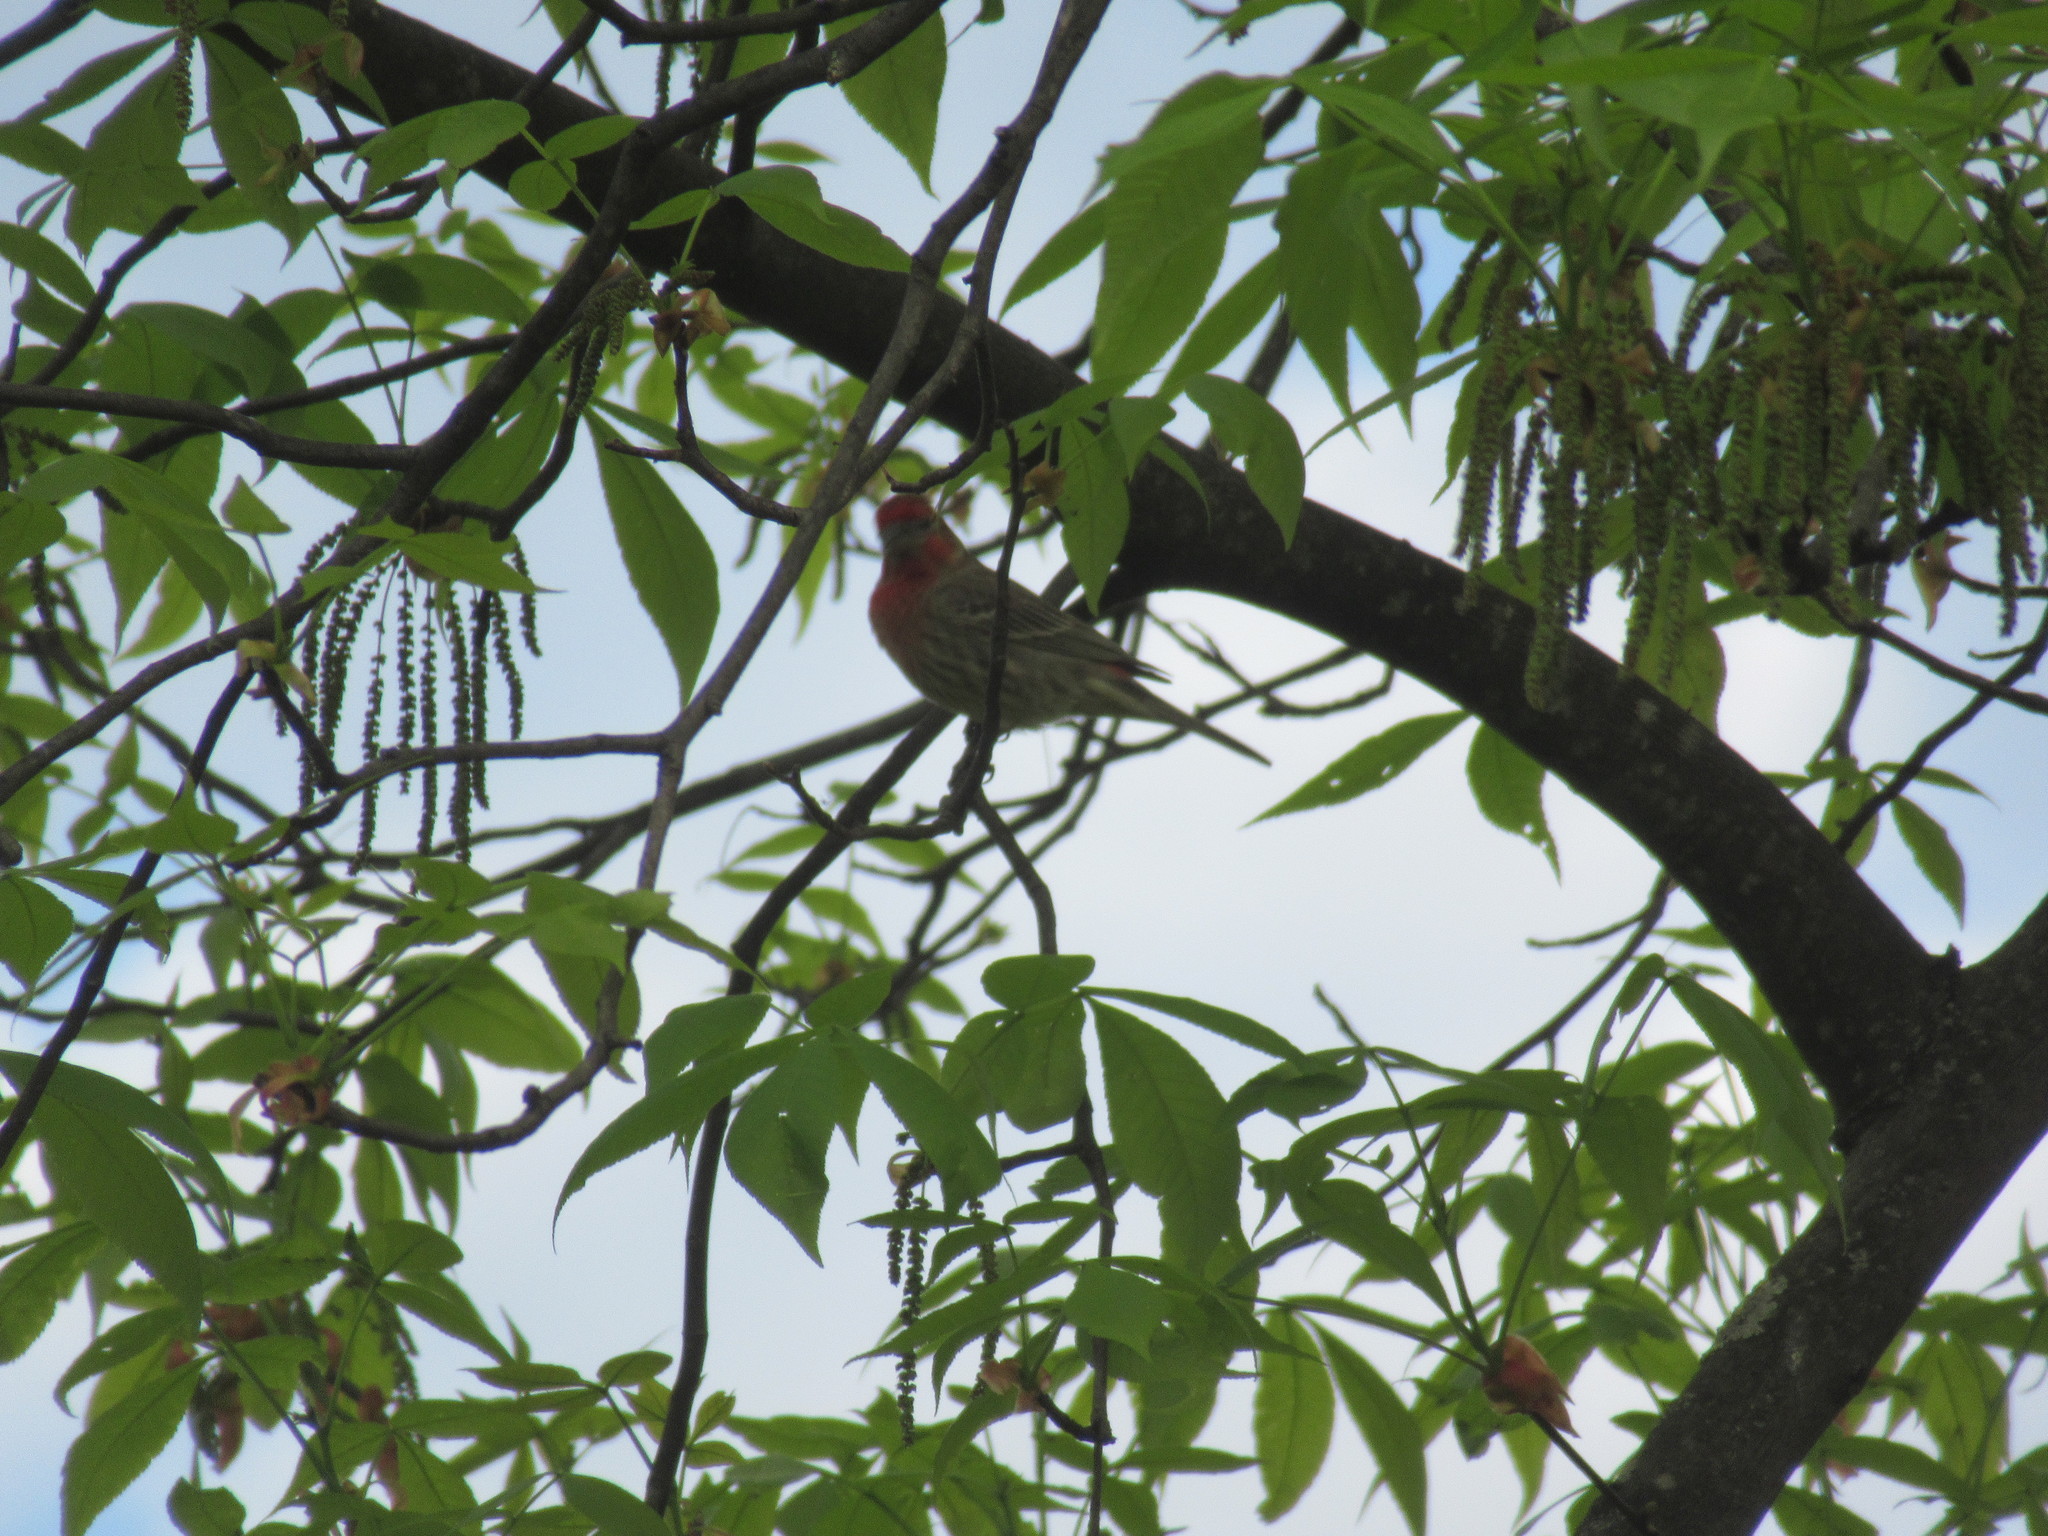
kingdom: Animalia
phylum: Chordata
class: Aves
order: Passeriformes
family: Fringillidae
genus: Haemorhous
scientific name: Haemorhous mexicanus
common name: House finch
